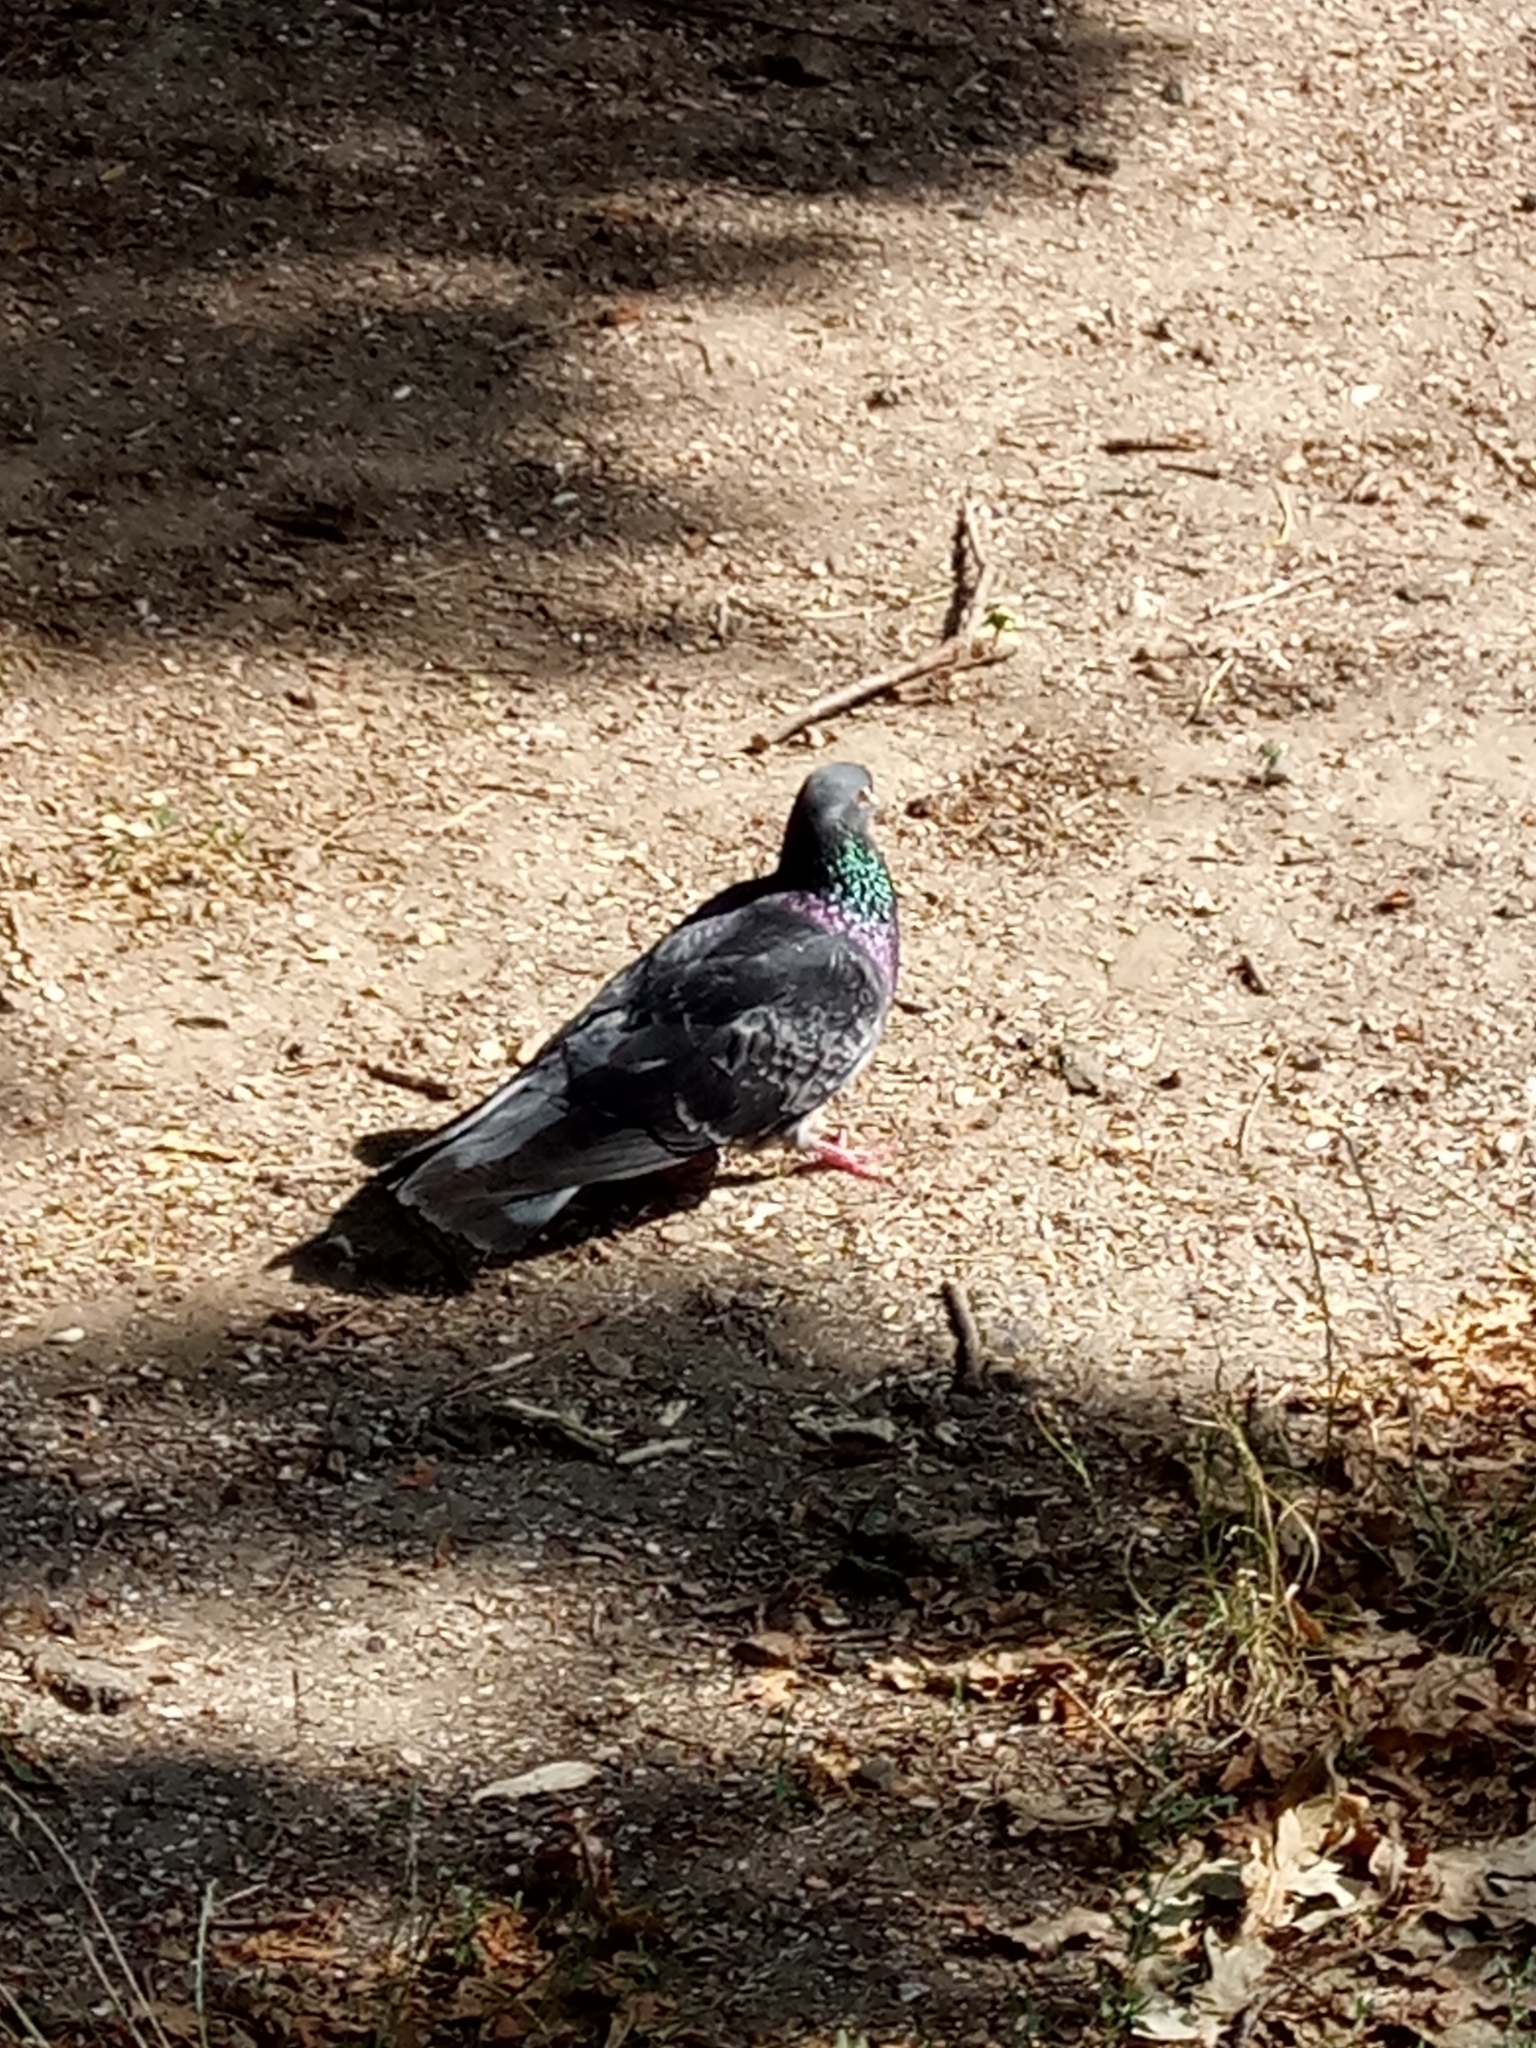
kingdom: Animalia
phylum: Chordata
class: Aves
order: Columbiformes
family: Columbidae
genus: Columba
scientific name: Columba livia
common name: Rock pigeon
